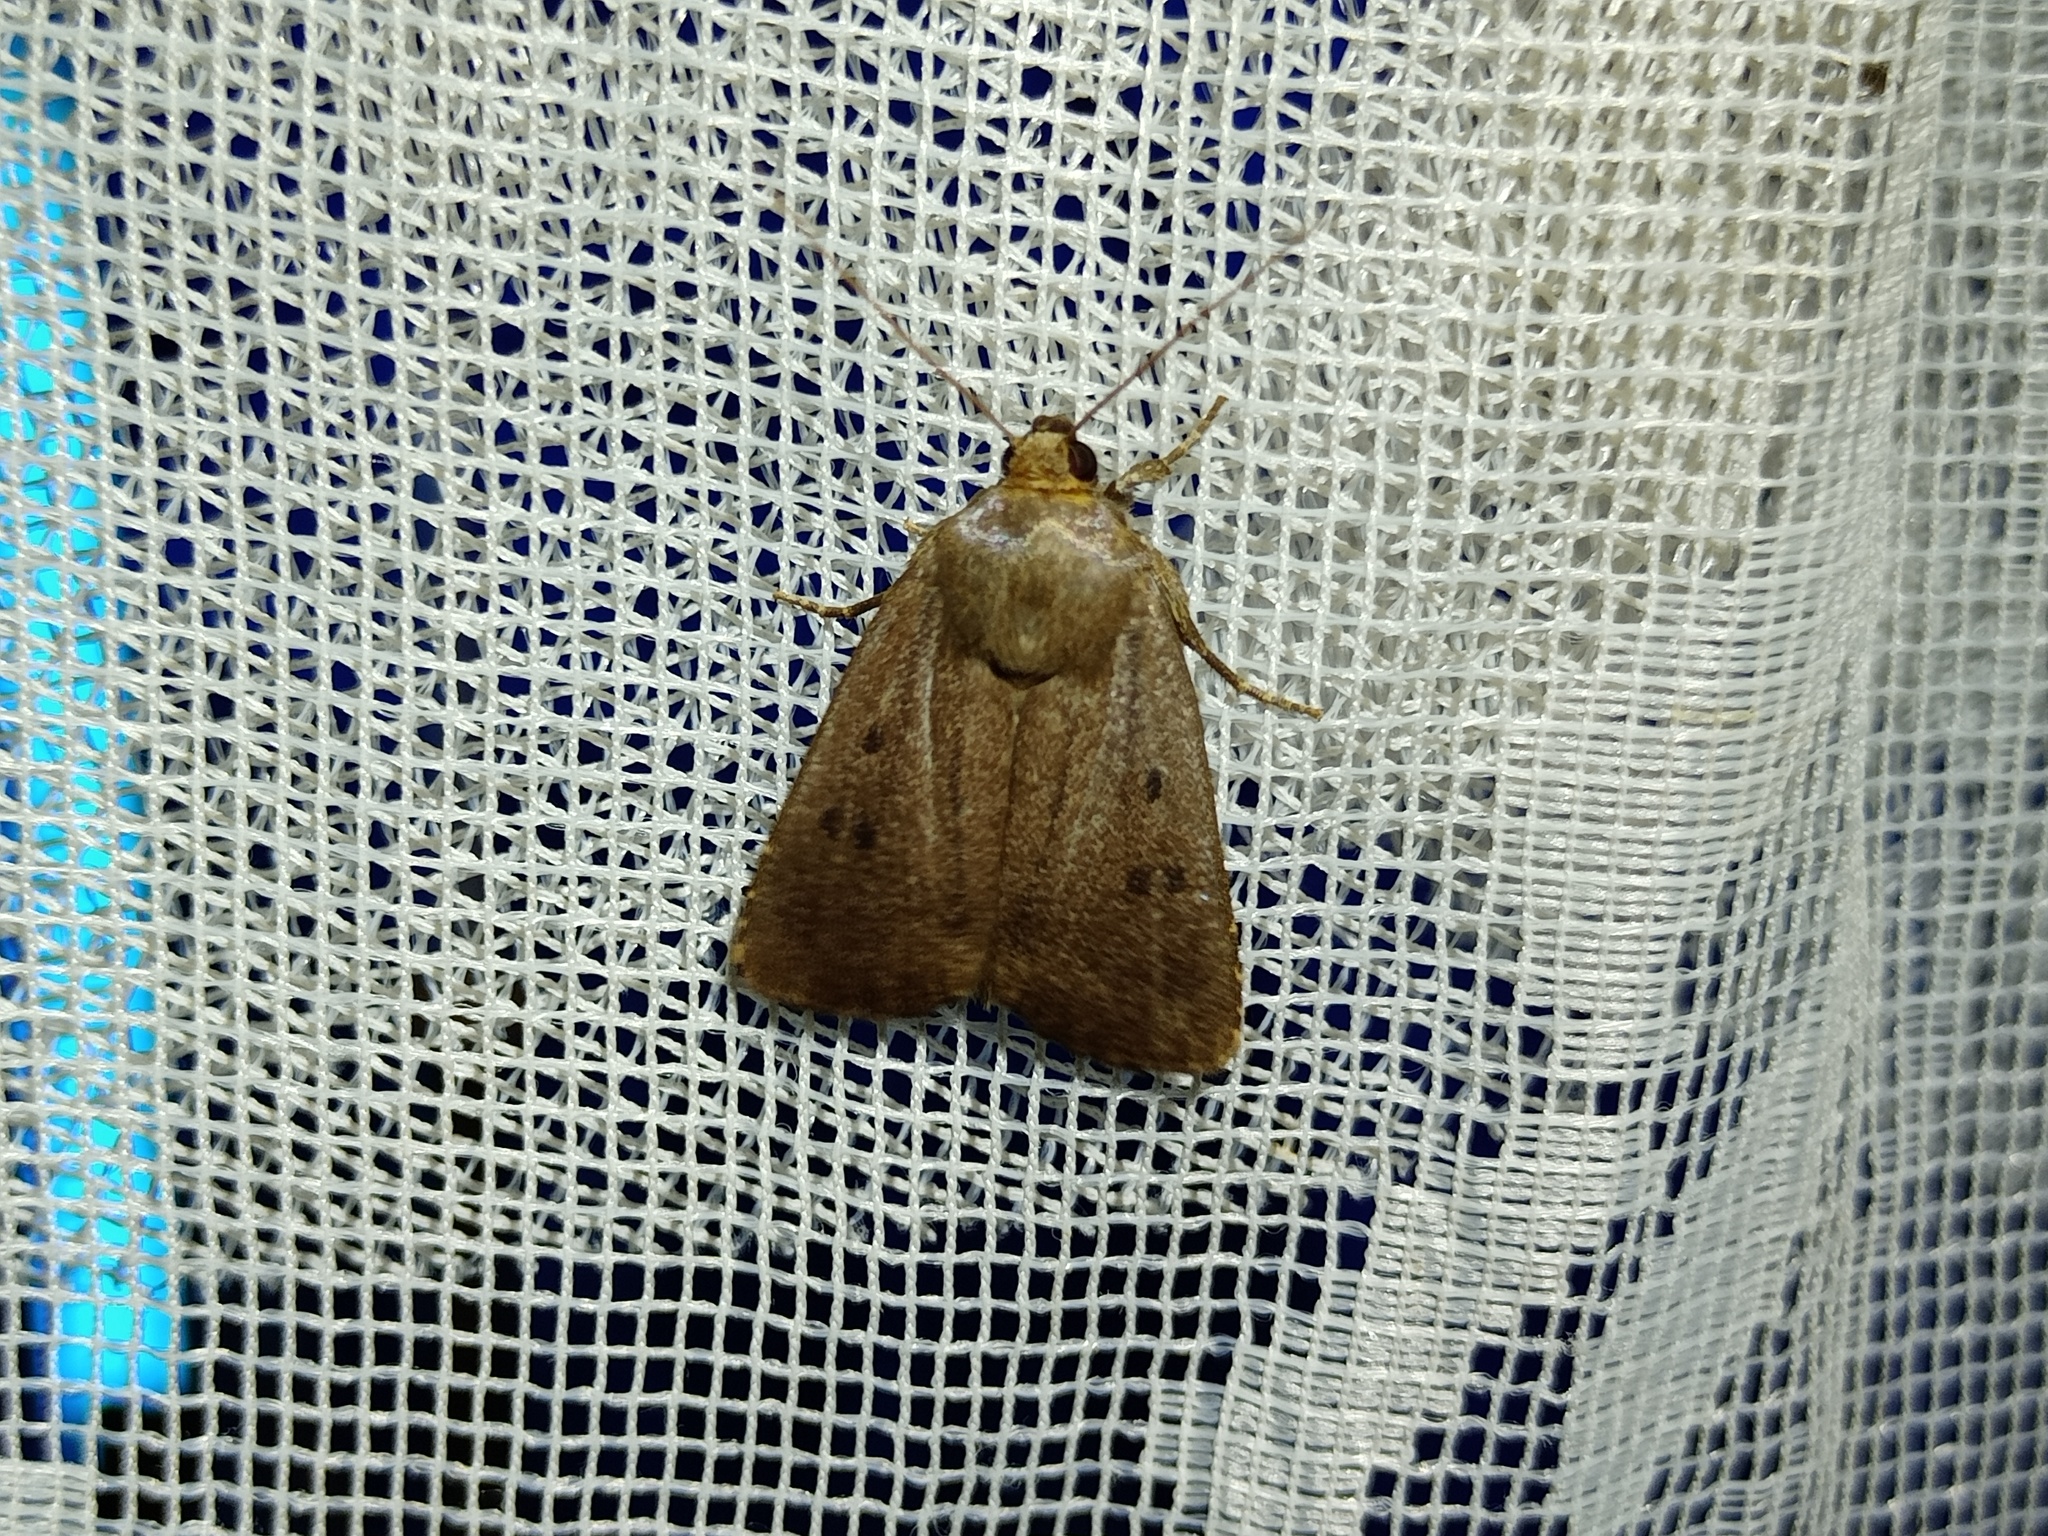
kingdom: Animalia
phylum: Arthropoda
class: Insecta
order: Lepidoptera
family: Noctuidae
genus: Amphipyra
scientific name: Amphipyra tragopoginis
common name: Mouse moth
